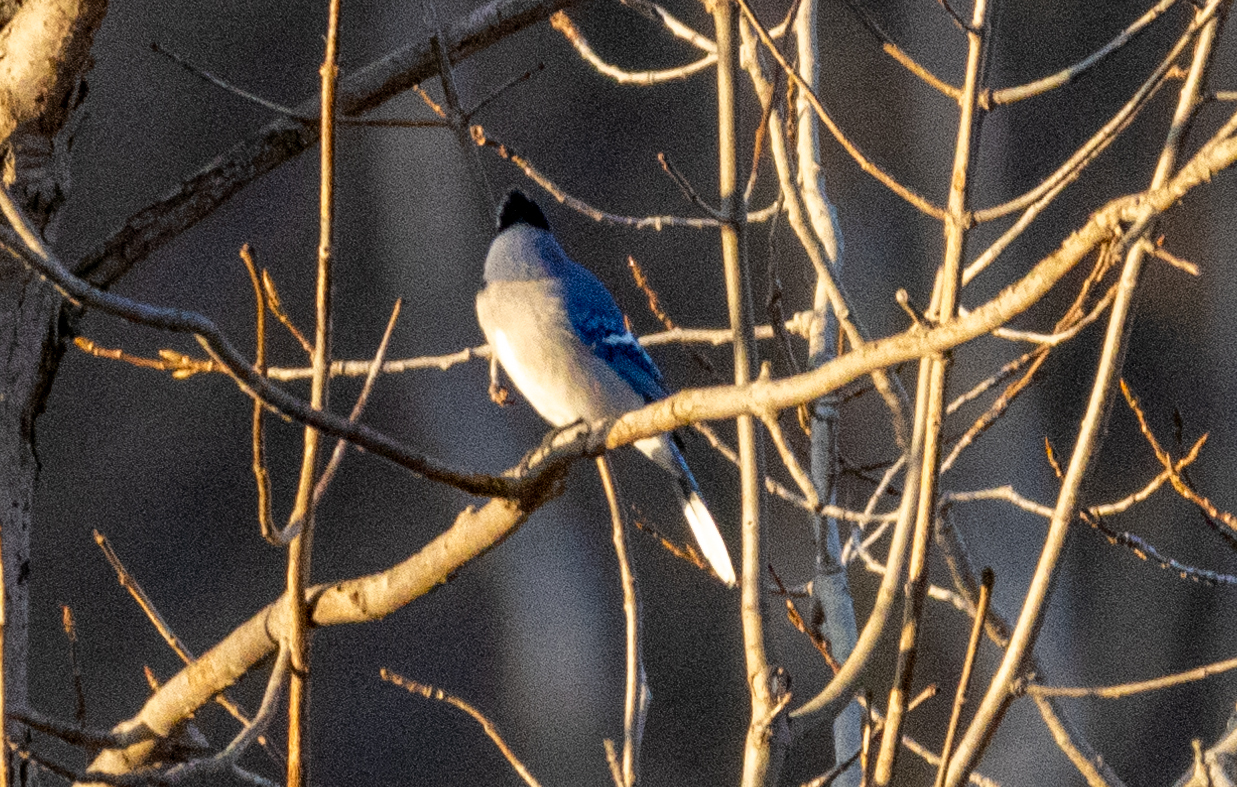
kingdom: Animalia
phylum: Chordata
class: Aves
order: Passeriformes
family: Corvidae
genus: Cyanocitta
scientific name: Cyanocitta cristata
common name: Blue jay
